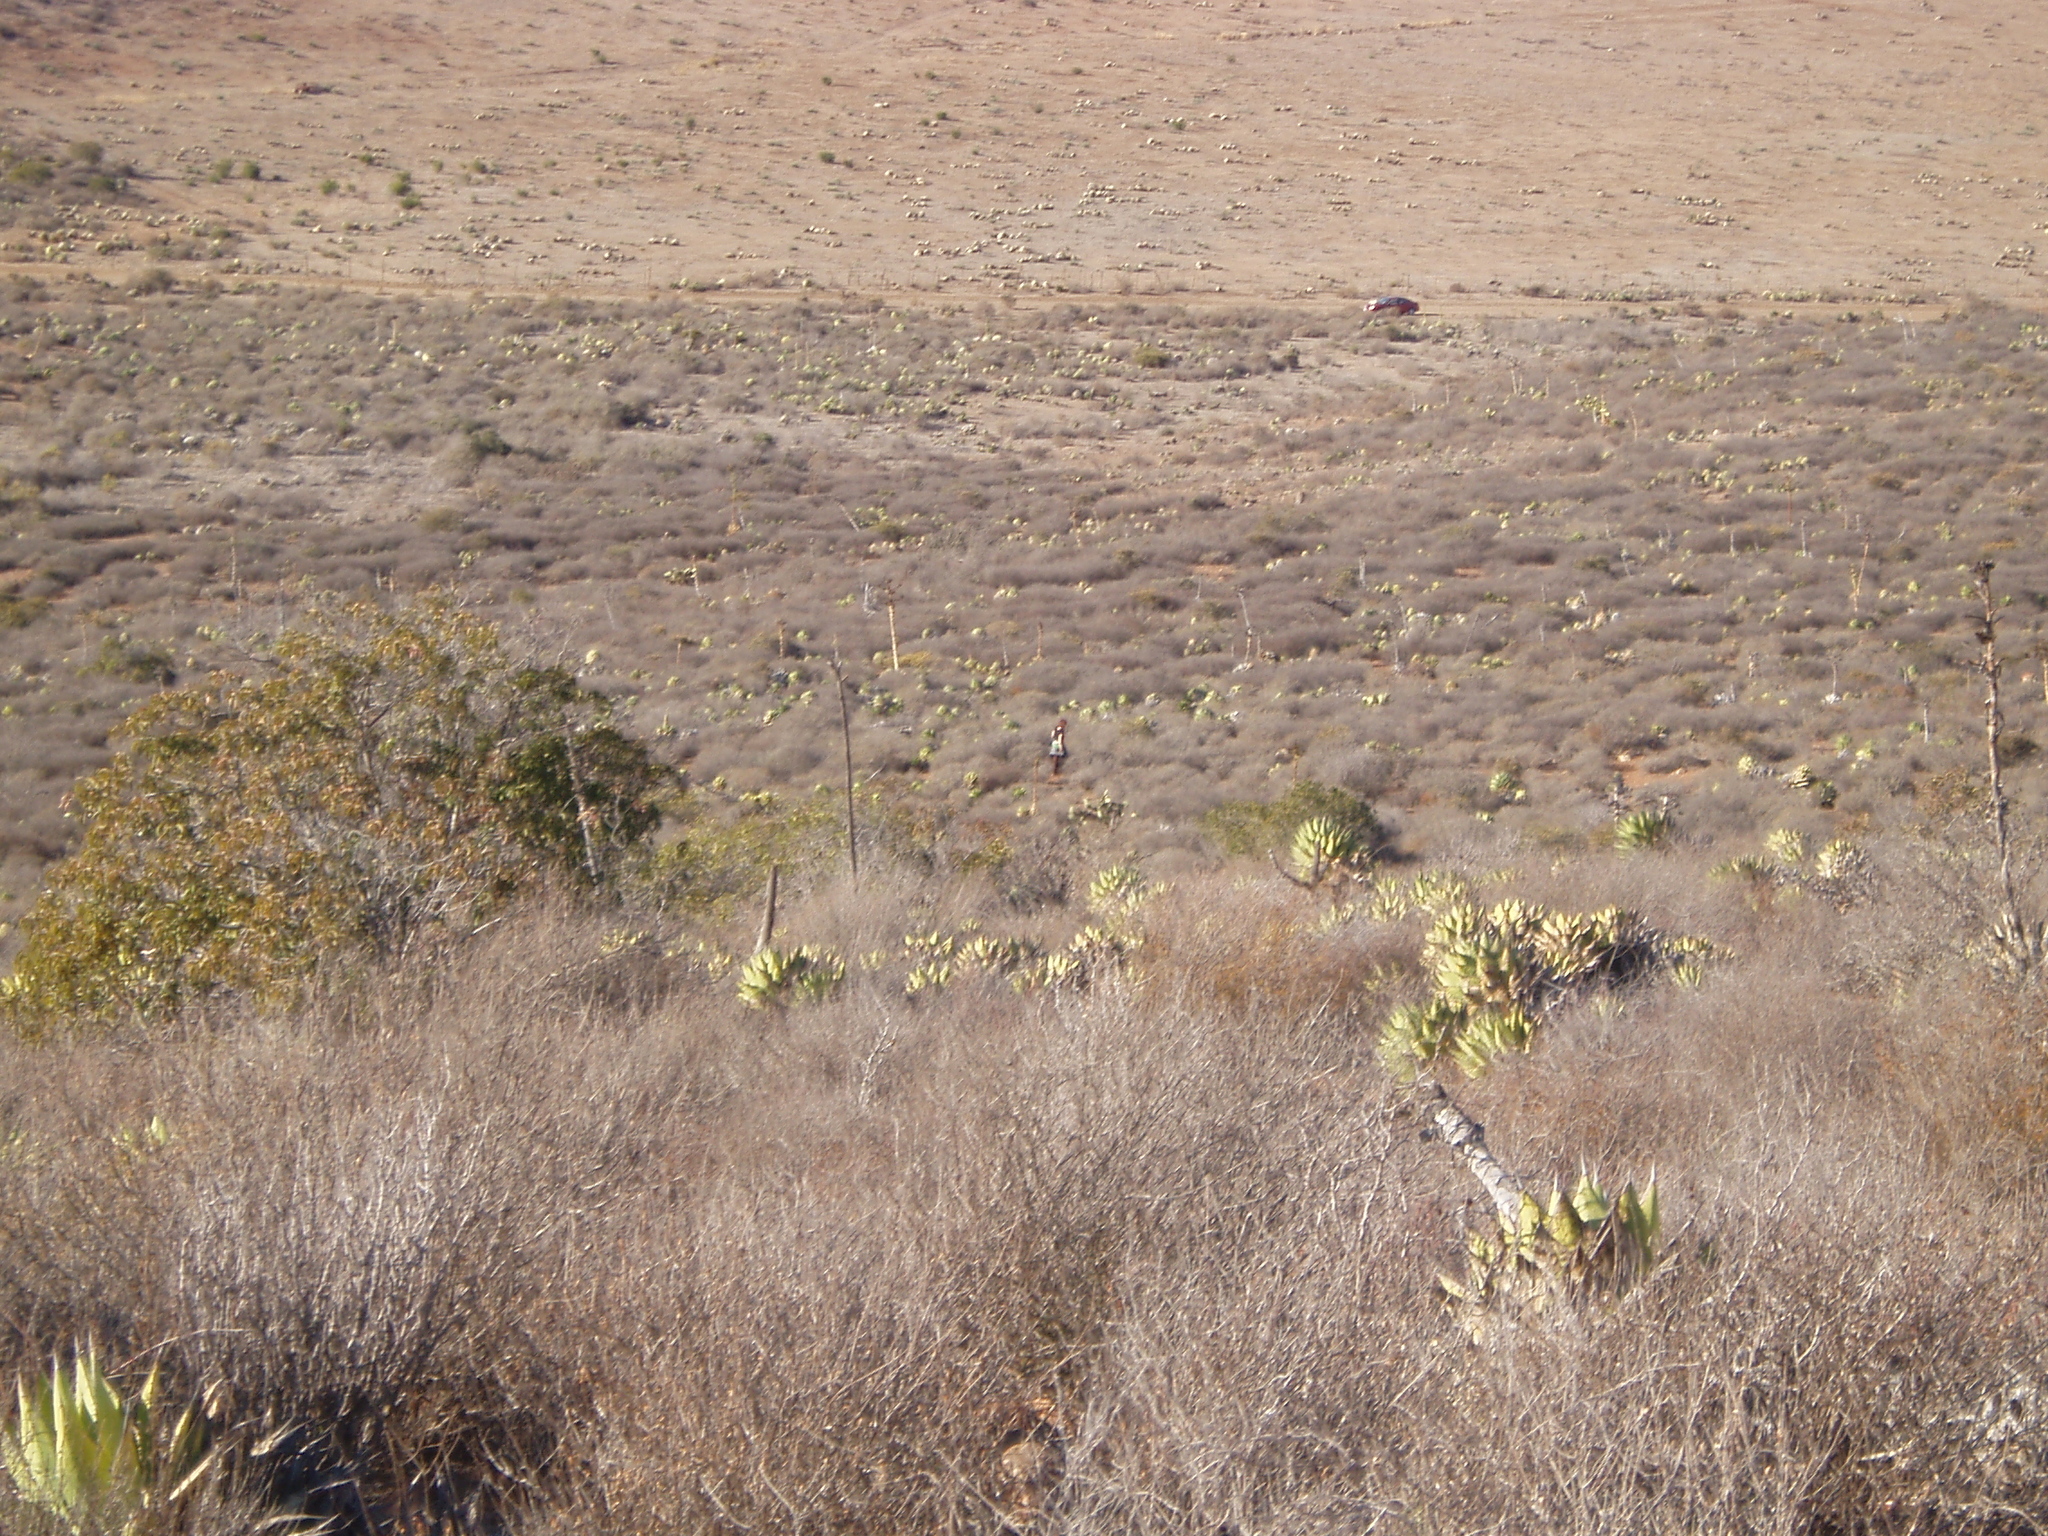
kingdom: Plantae
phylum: Tracheophyta
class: Liliopsida
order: Asparagales
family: Asparagaceae
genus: Agave
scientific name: Agave shawii
